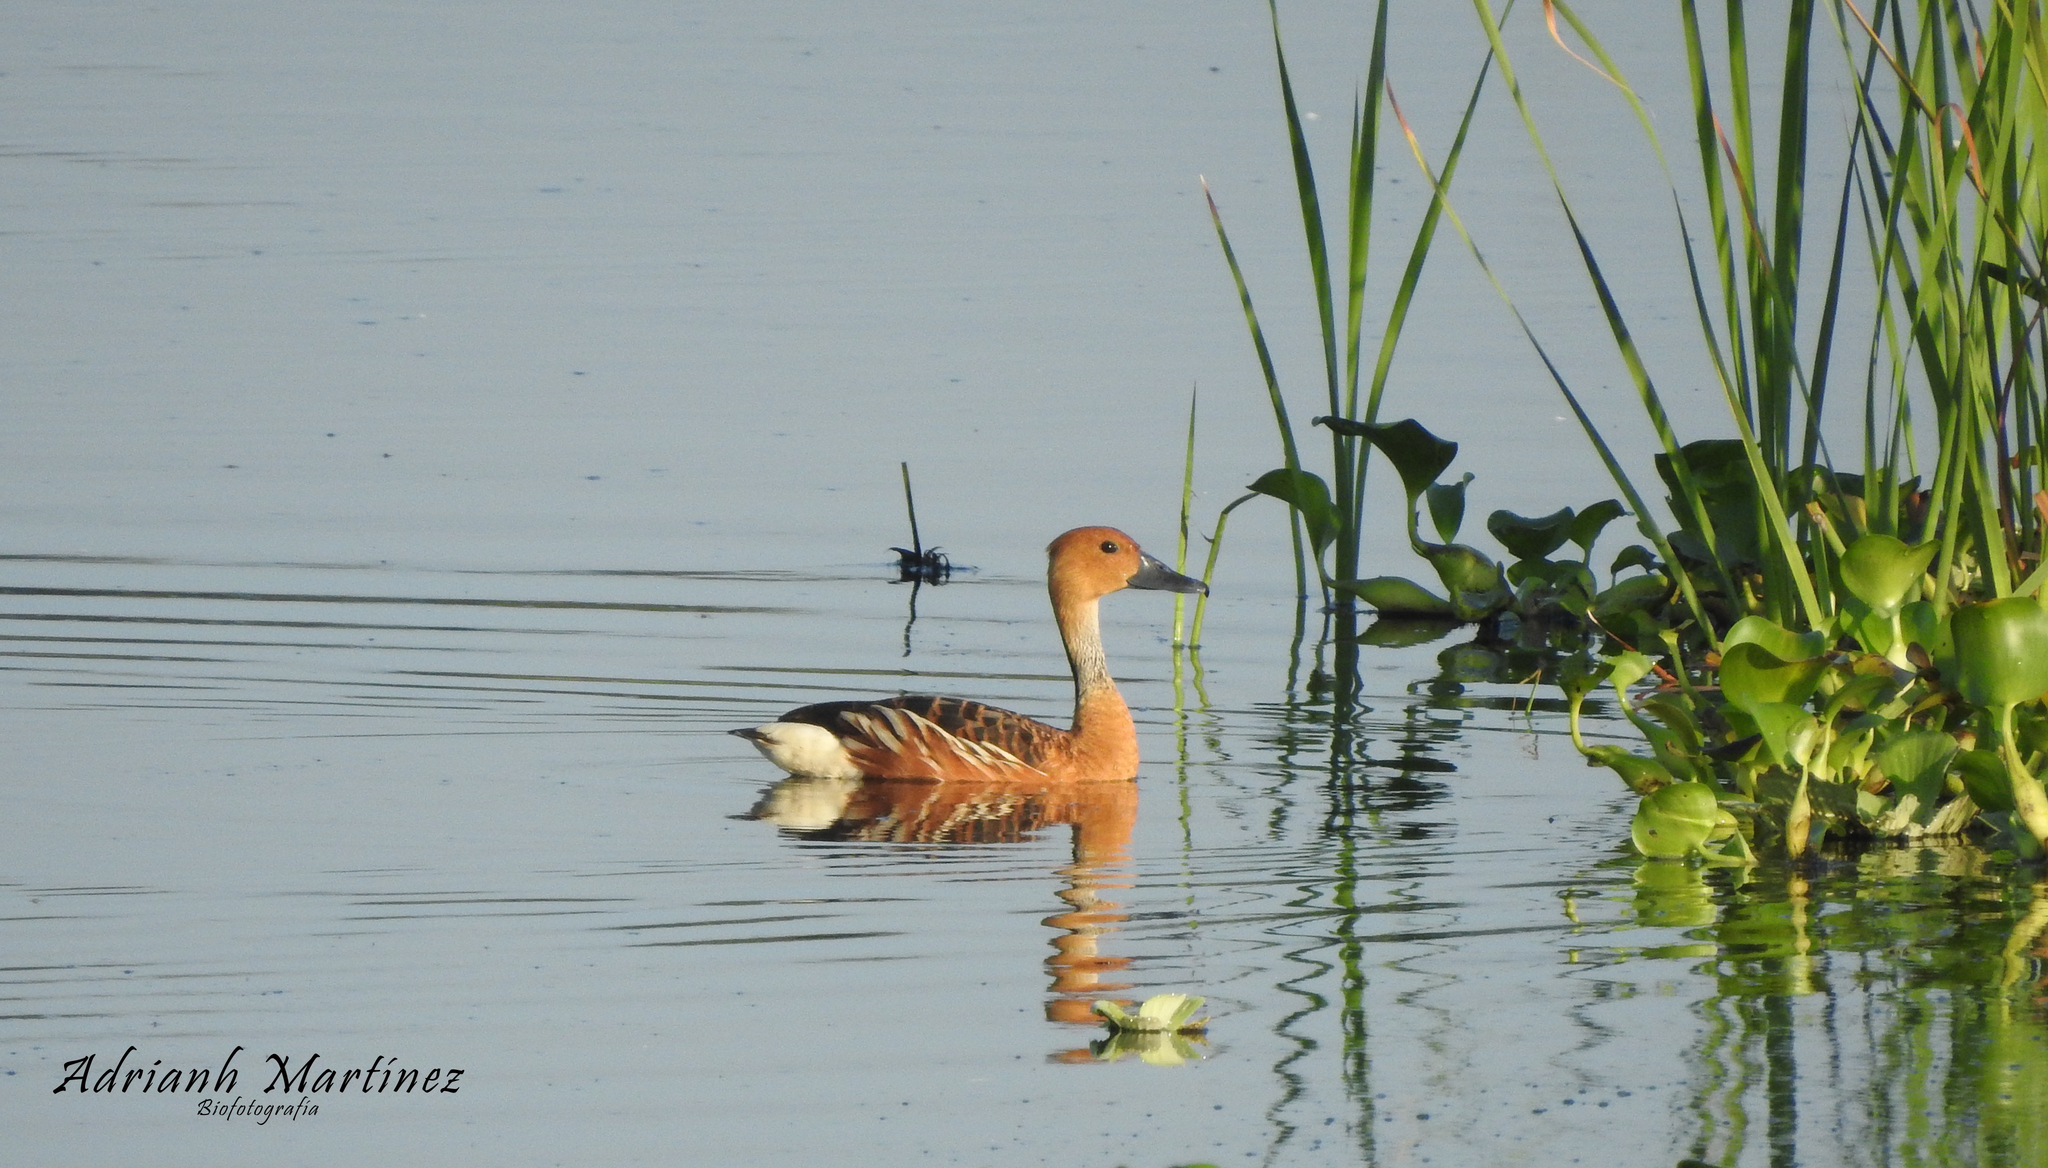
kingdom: Animalia
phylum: Chordata
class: Aves
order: Anseriformes
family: Anatidae
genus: Dendrocygna
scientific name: Dendrocygna bicolor
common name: Fulvous whistling duck
